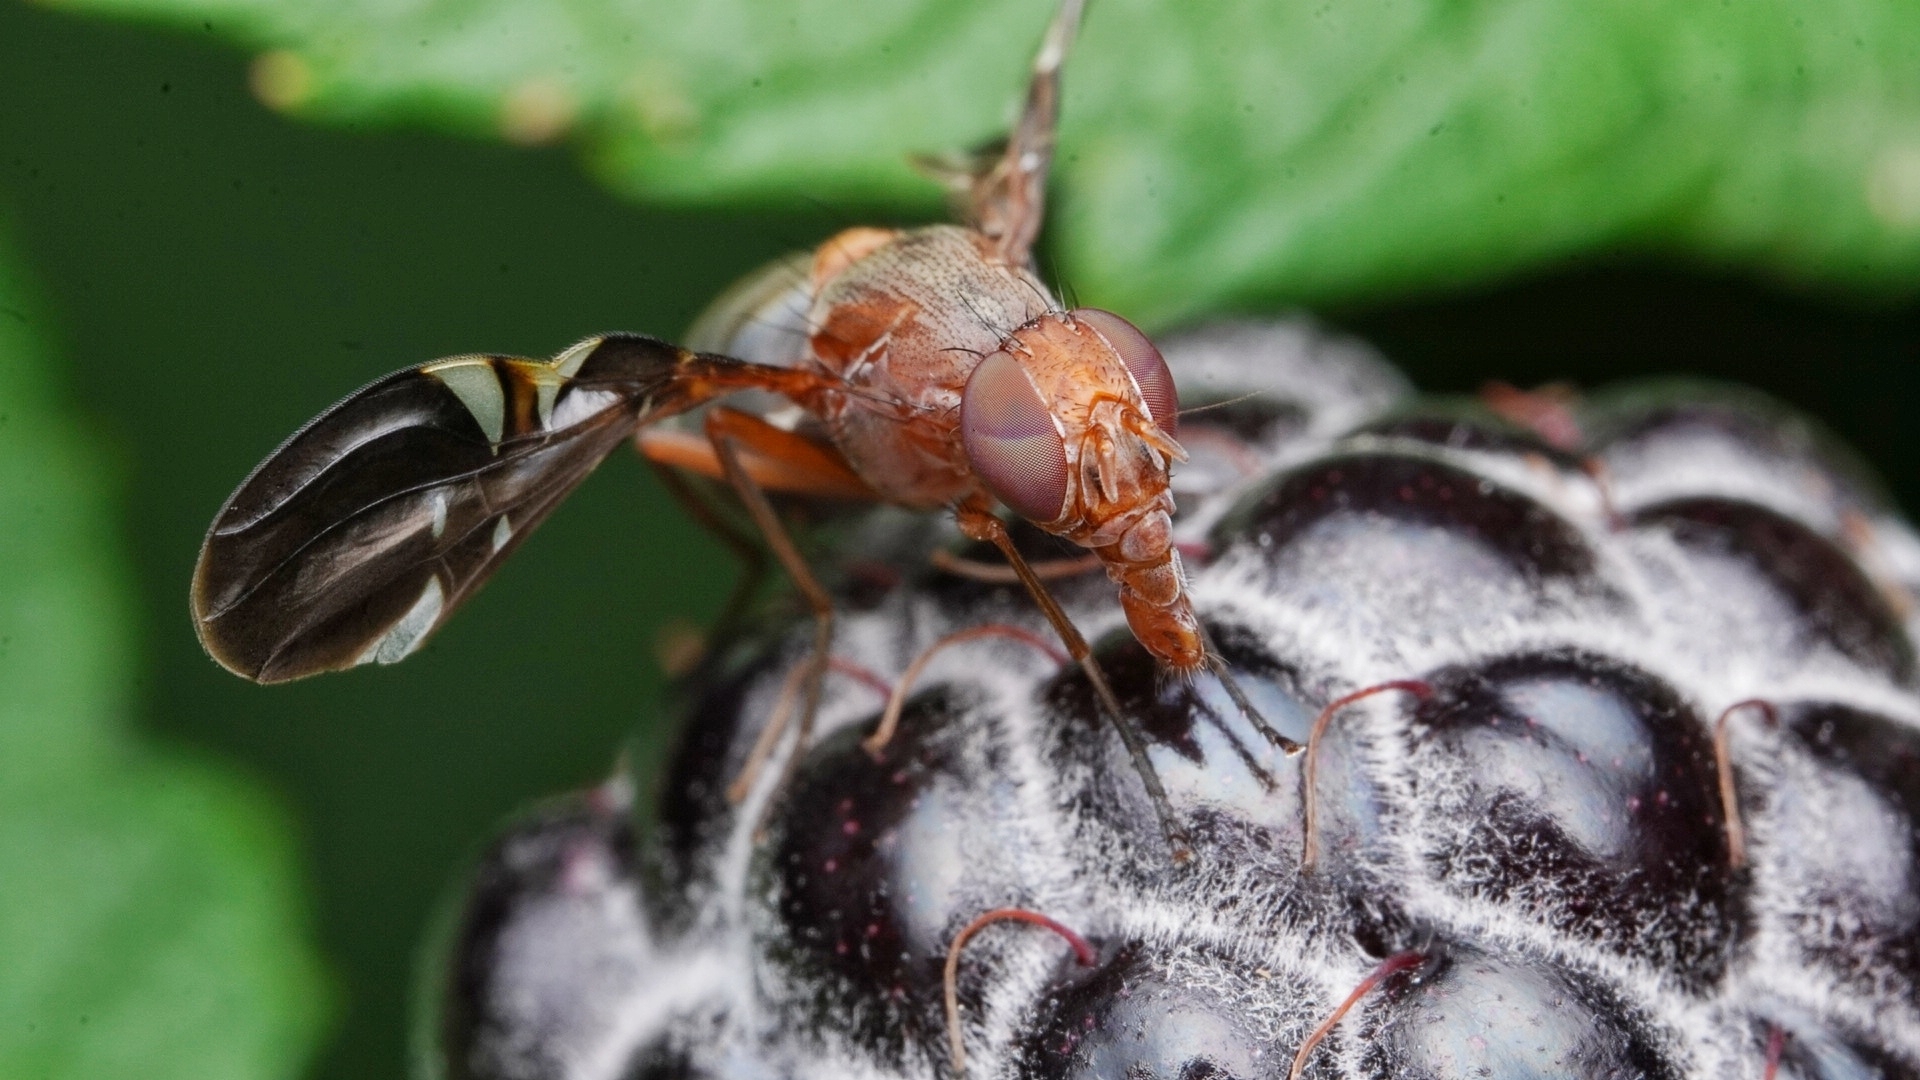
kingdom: Animalia
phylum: Arthropoda
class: Insecta
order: Diptera
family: Ulidiidae
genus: Delphinia
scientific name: Delphinia picta
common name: Common picture-winged fly
